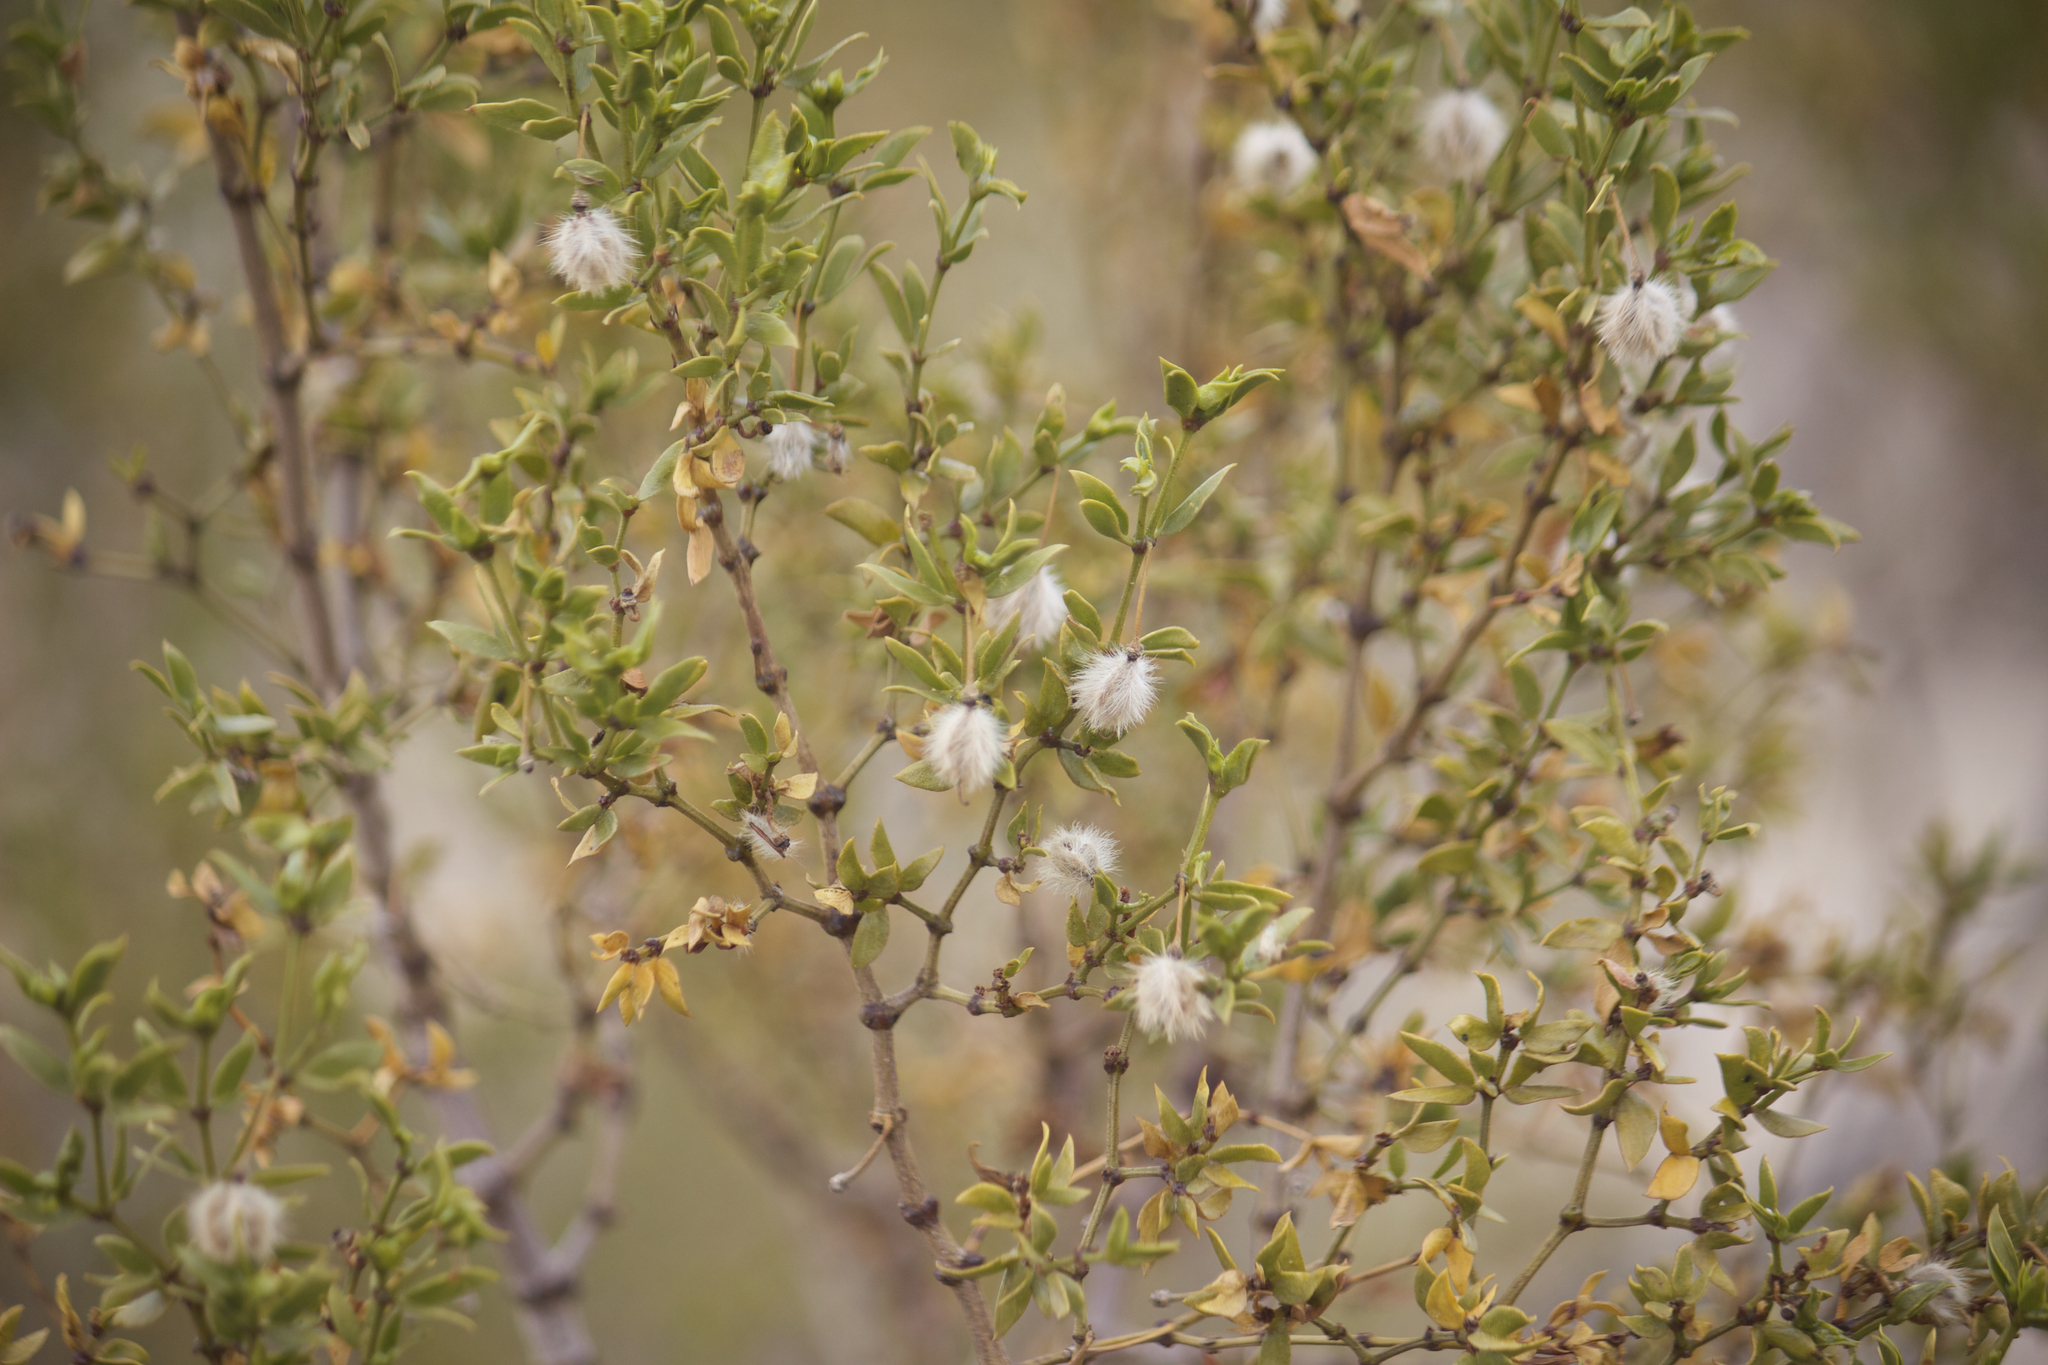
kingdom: Plantae
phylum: Tracheophyta
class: Magnoliopsida
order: Zygophyllales
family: Zygophyllaceae
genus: Larrea
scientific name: Larrea tridentata
